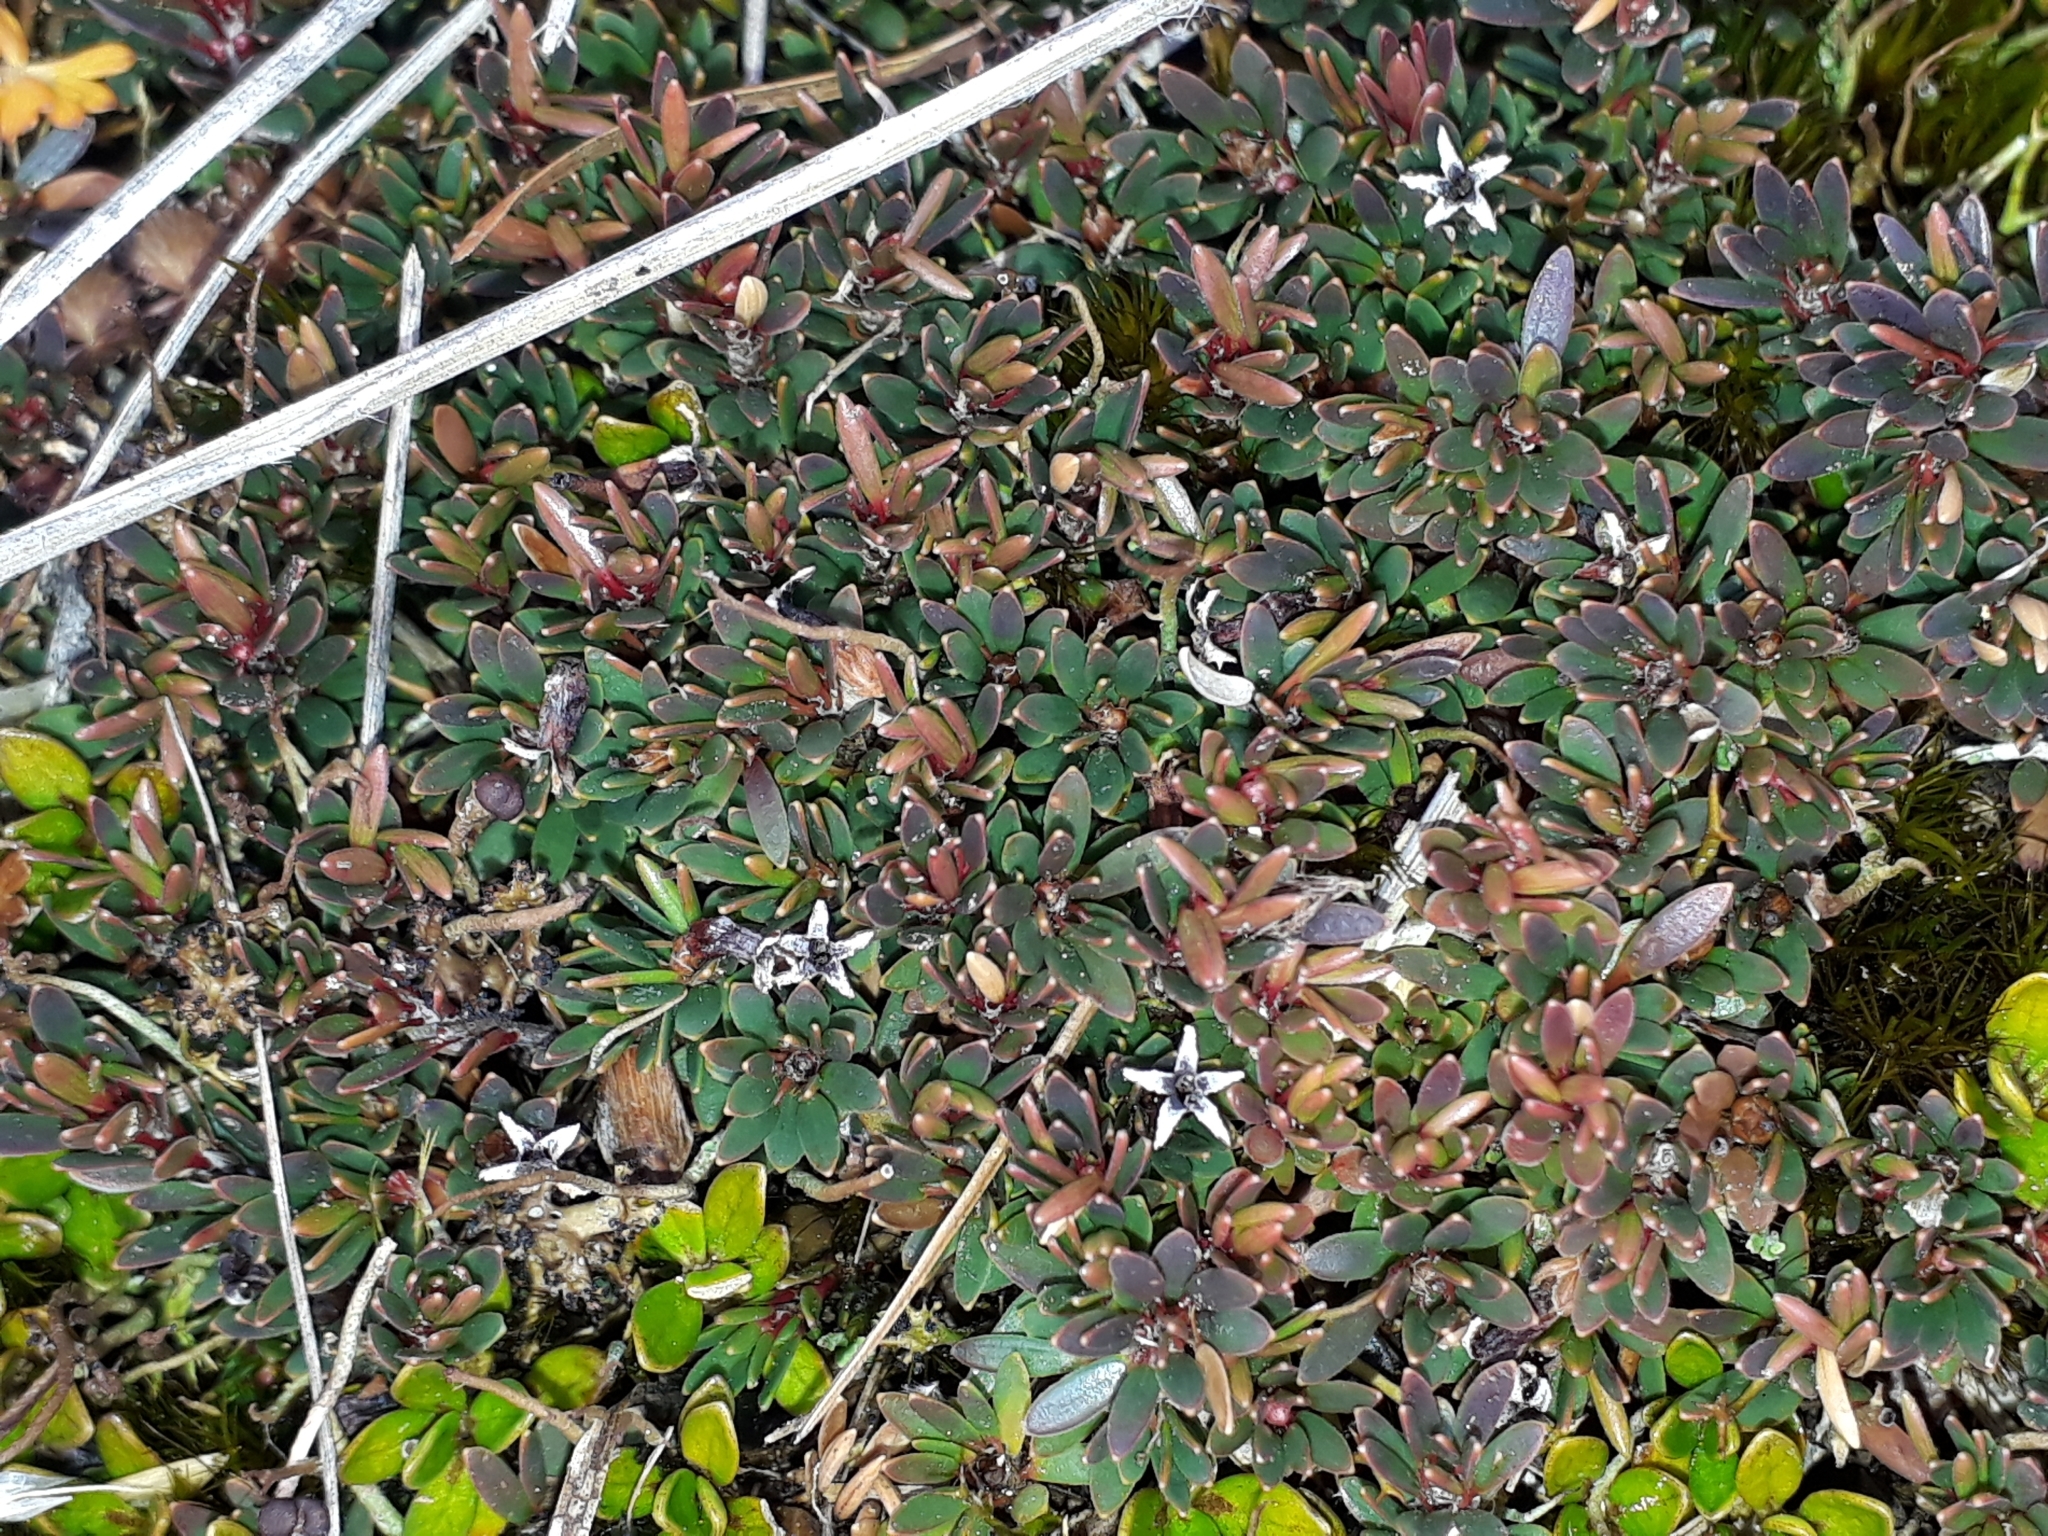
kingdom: Plantae
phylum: Tracheophyta
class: Magnoliopsida
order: Ericales
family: Ericaceae
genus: Pentachondra
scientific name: Pentachondra pumila
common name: Carpet-heath
